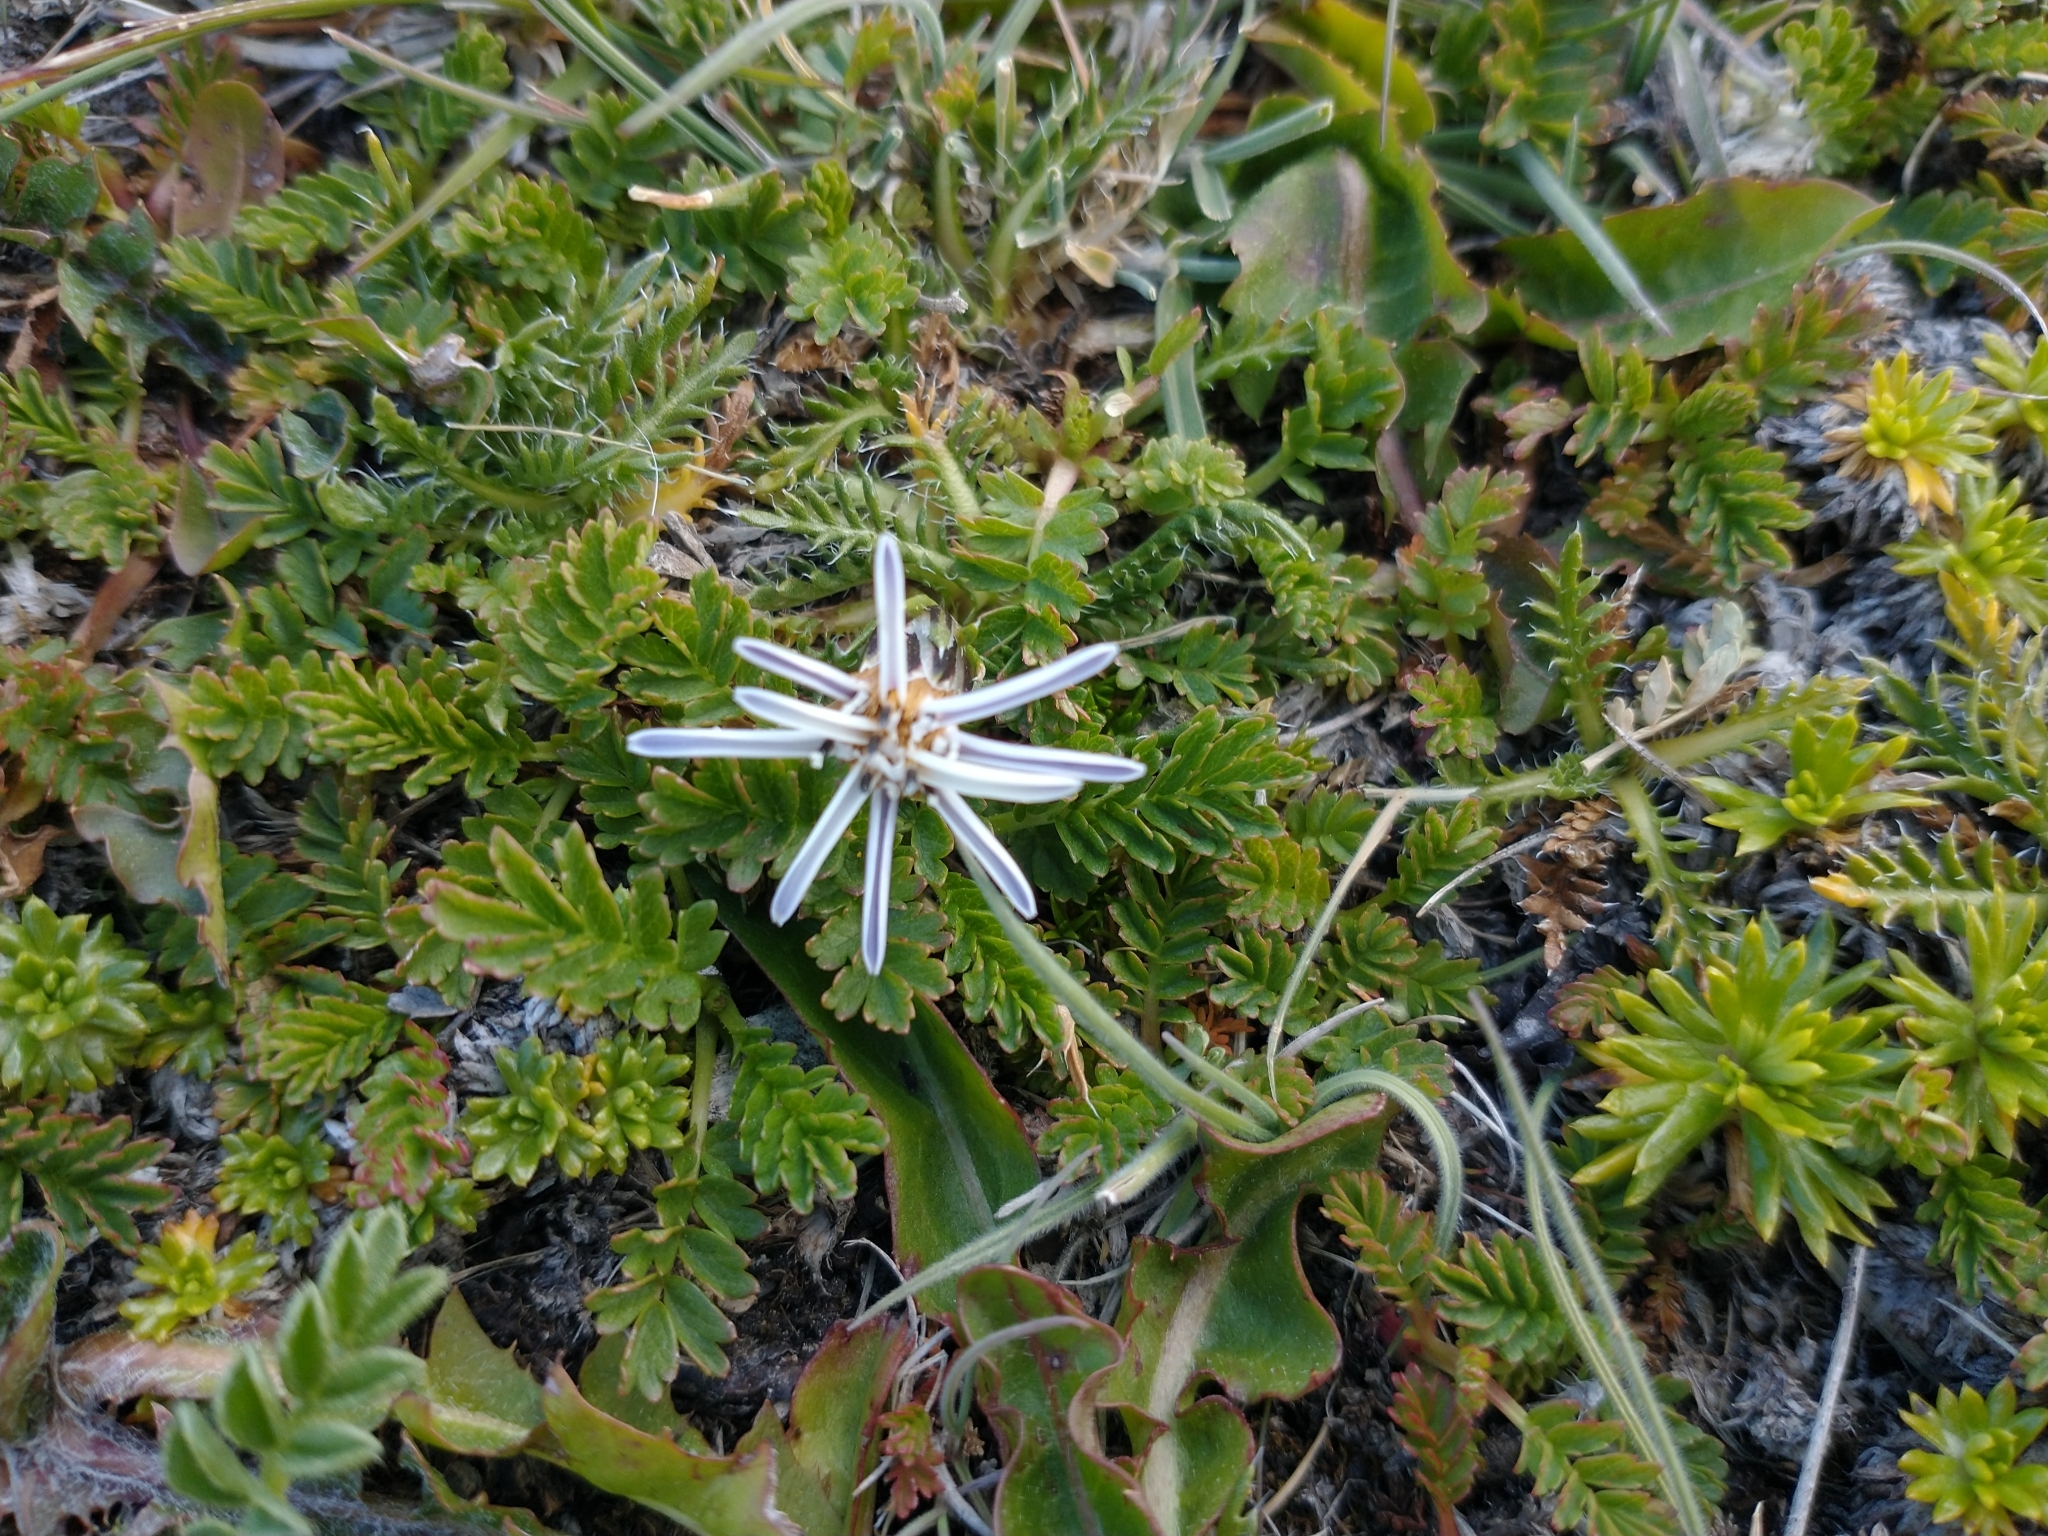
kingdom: Plantae
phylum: Tracheophyta
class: Magnoliopsida
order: Asterales
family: Asteraceae
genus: Perezia
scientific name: Perezia pilifera
